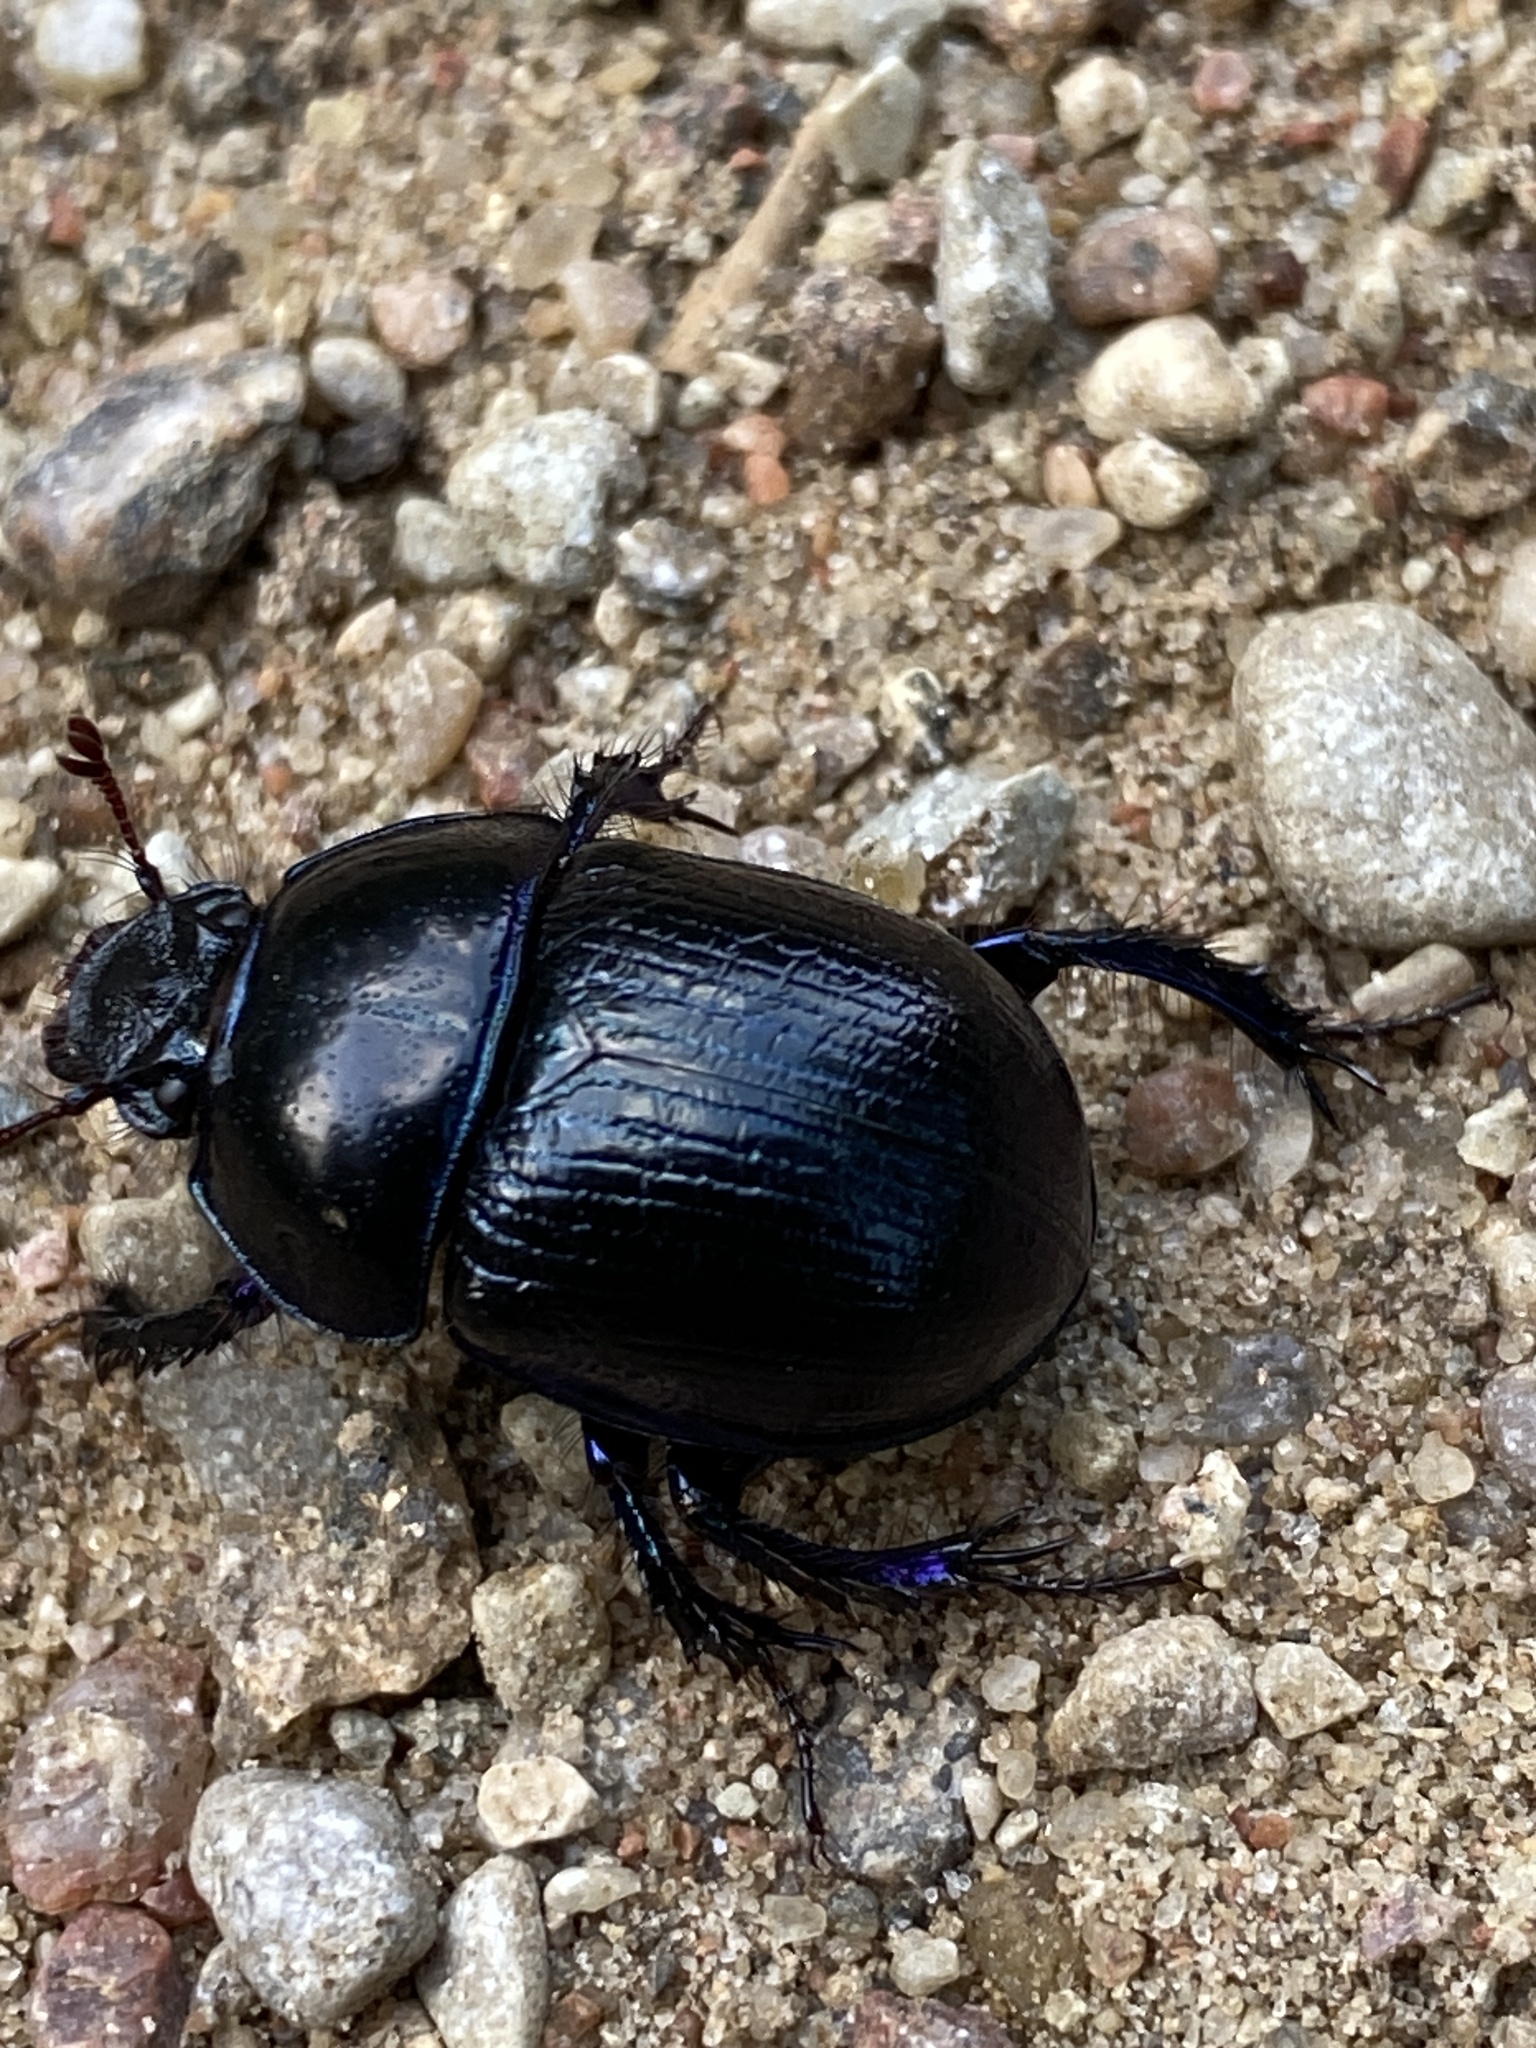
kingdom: Animalia
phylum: Arthropoda
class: Insecta
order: Coleoptera
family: Geotrupidae
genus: Anoplotrupes
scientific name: Anoplotrupes stercorosus
